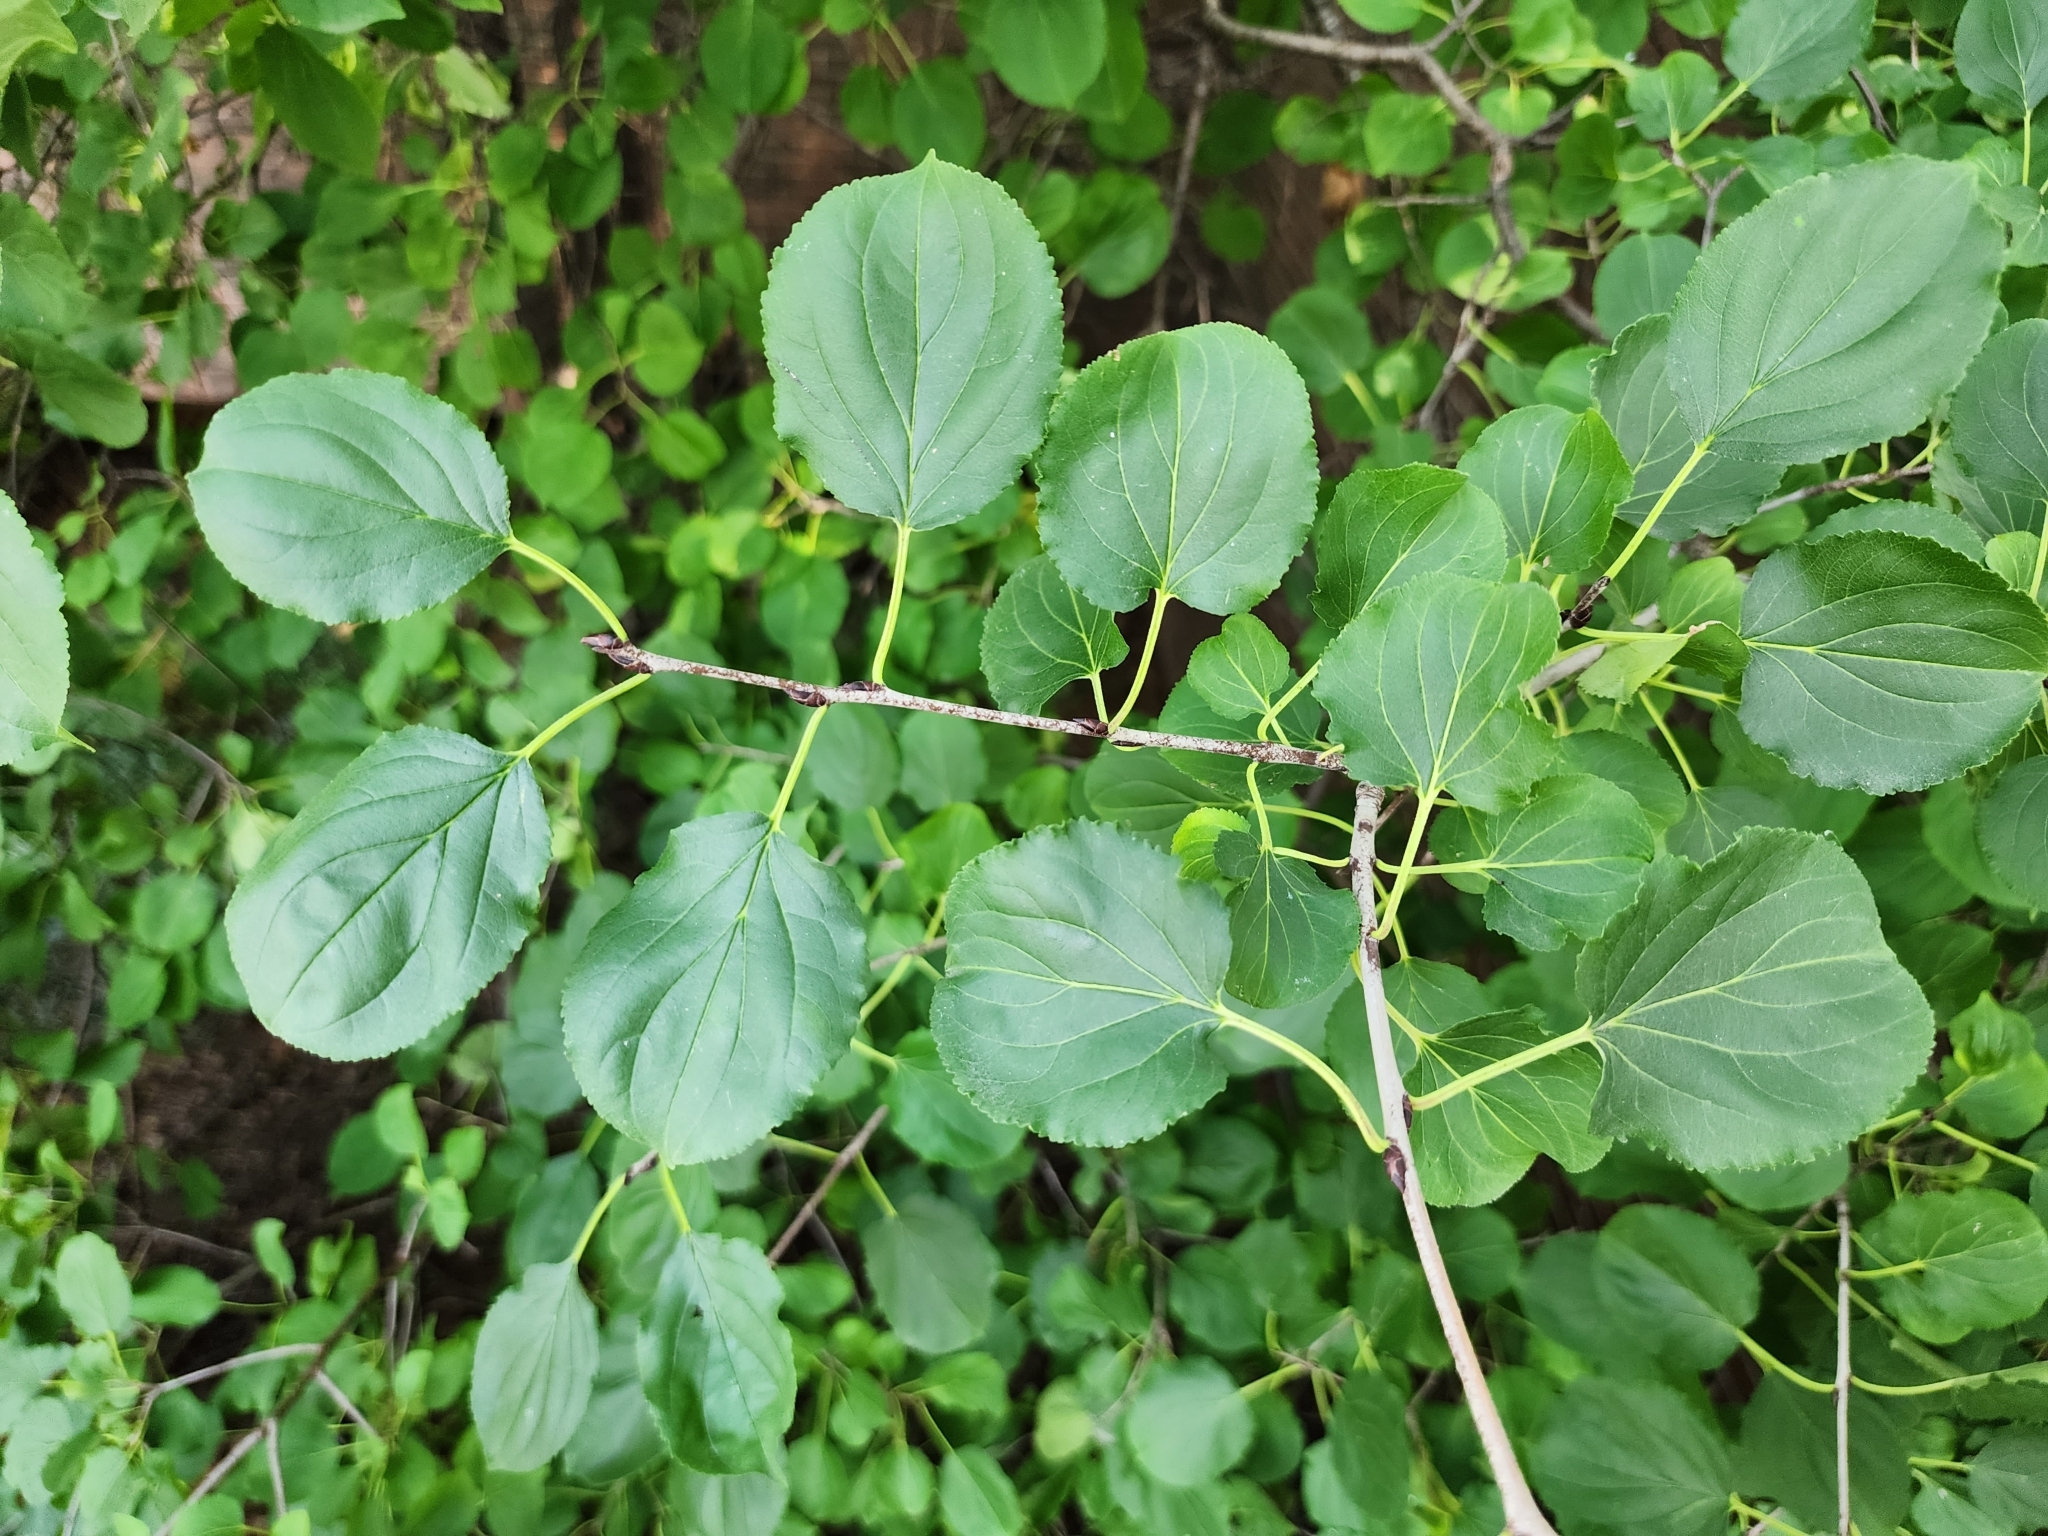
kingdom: Plantae
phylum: Tracheophyta
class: Magnoliopsida
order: Rosales
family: Rhamnaceae
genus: Rhamnus
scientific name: Rhamnus cathartica
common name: Common buckthorn
